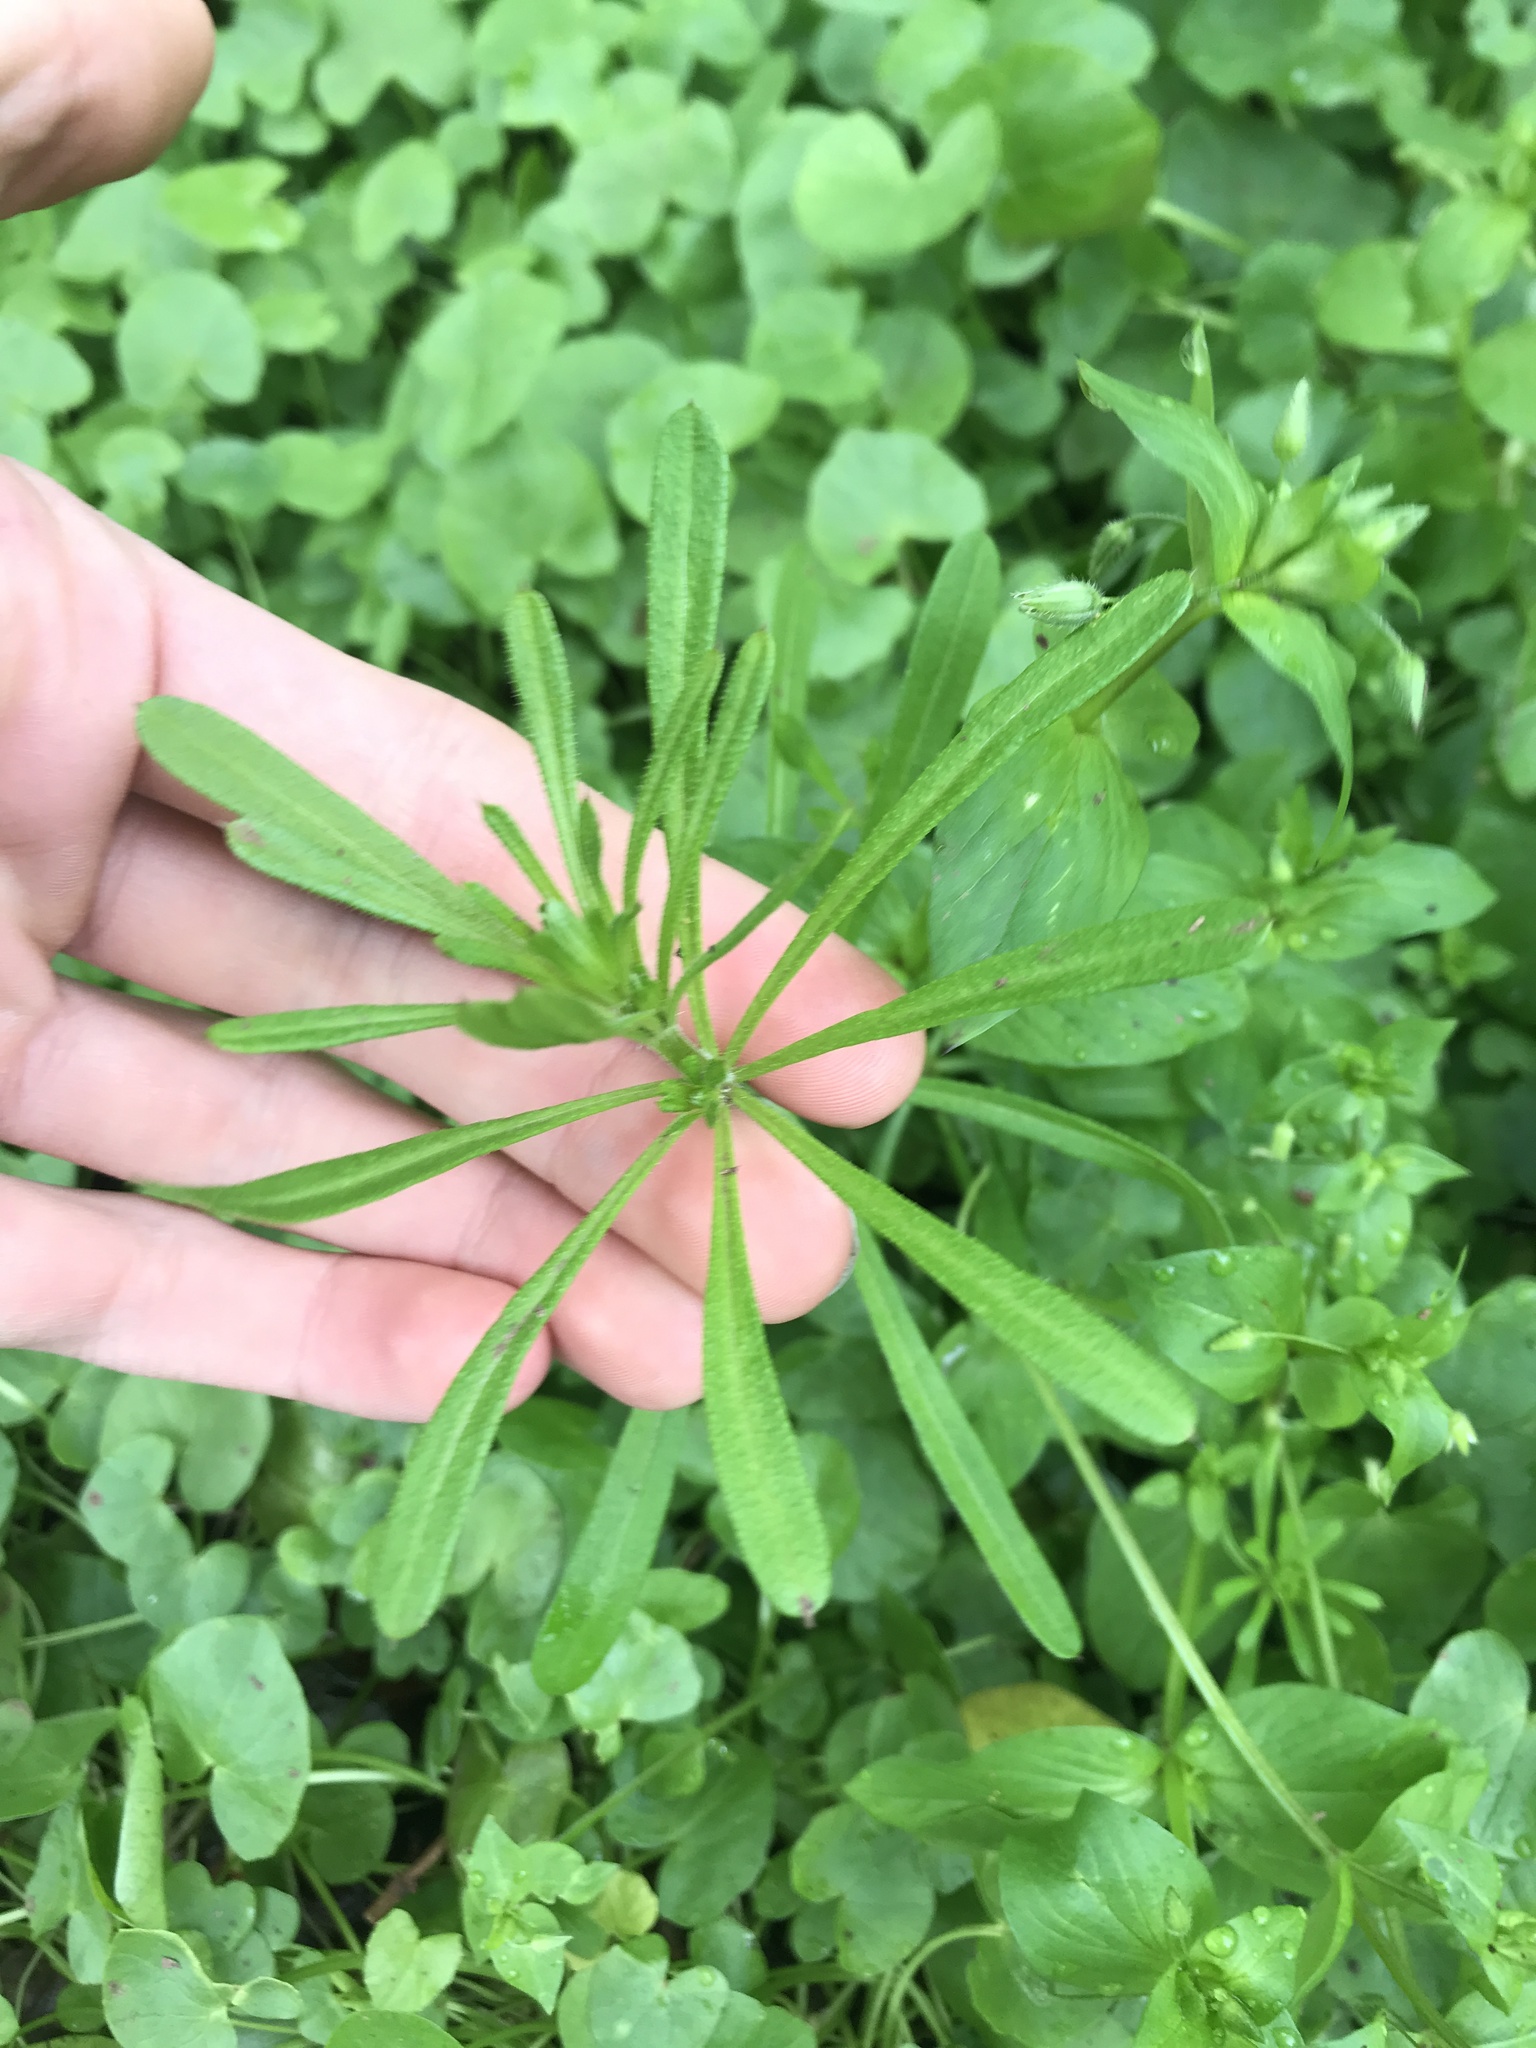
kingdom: Plantae
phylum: Tracheophyta
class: Magnoliopsida
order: Gentianales
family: Rubiaceae
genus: Galium
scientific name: Galium aparine
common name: Cleavers
